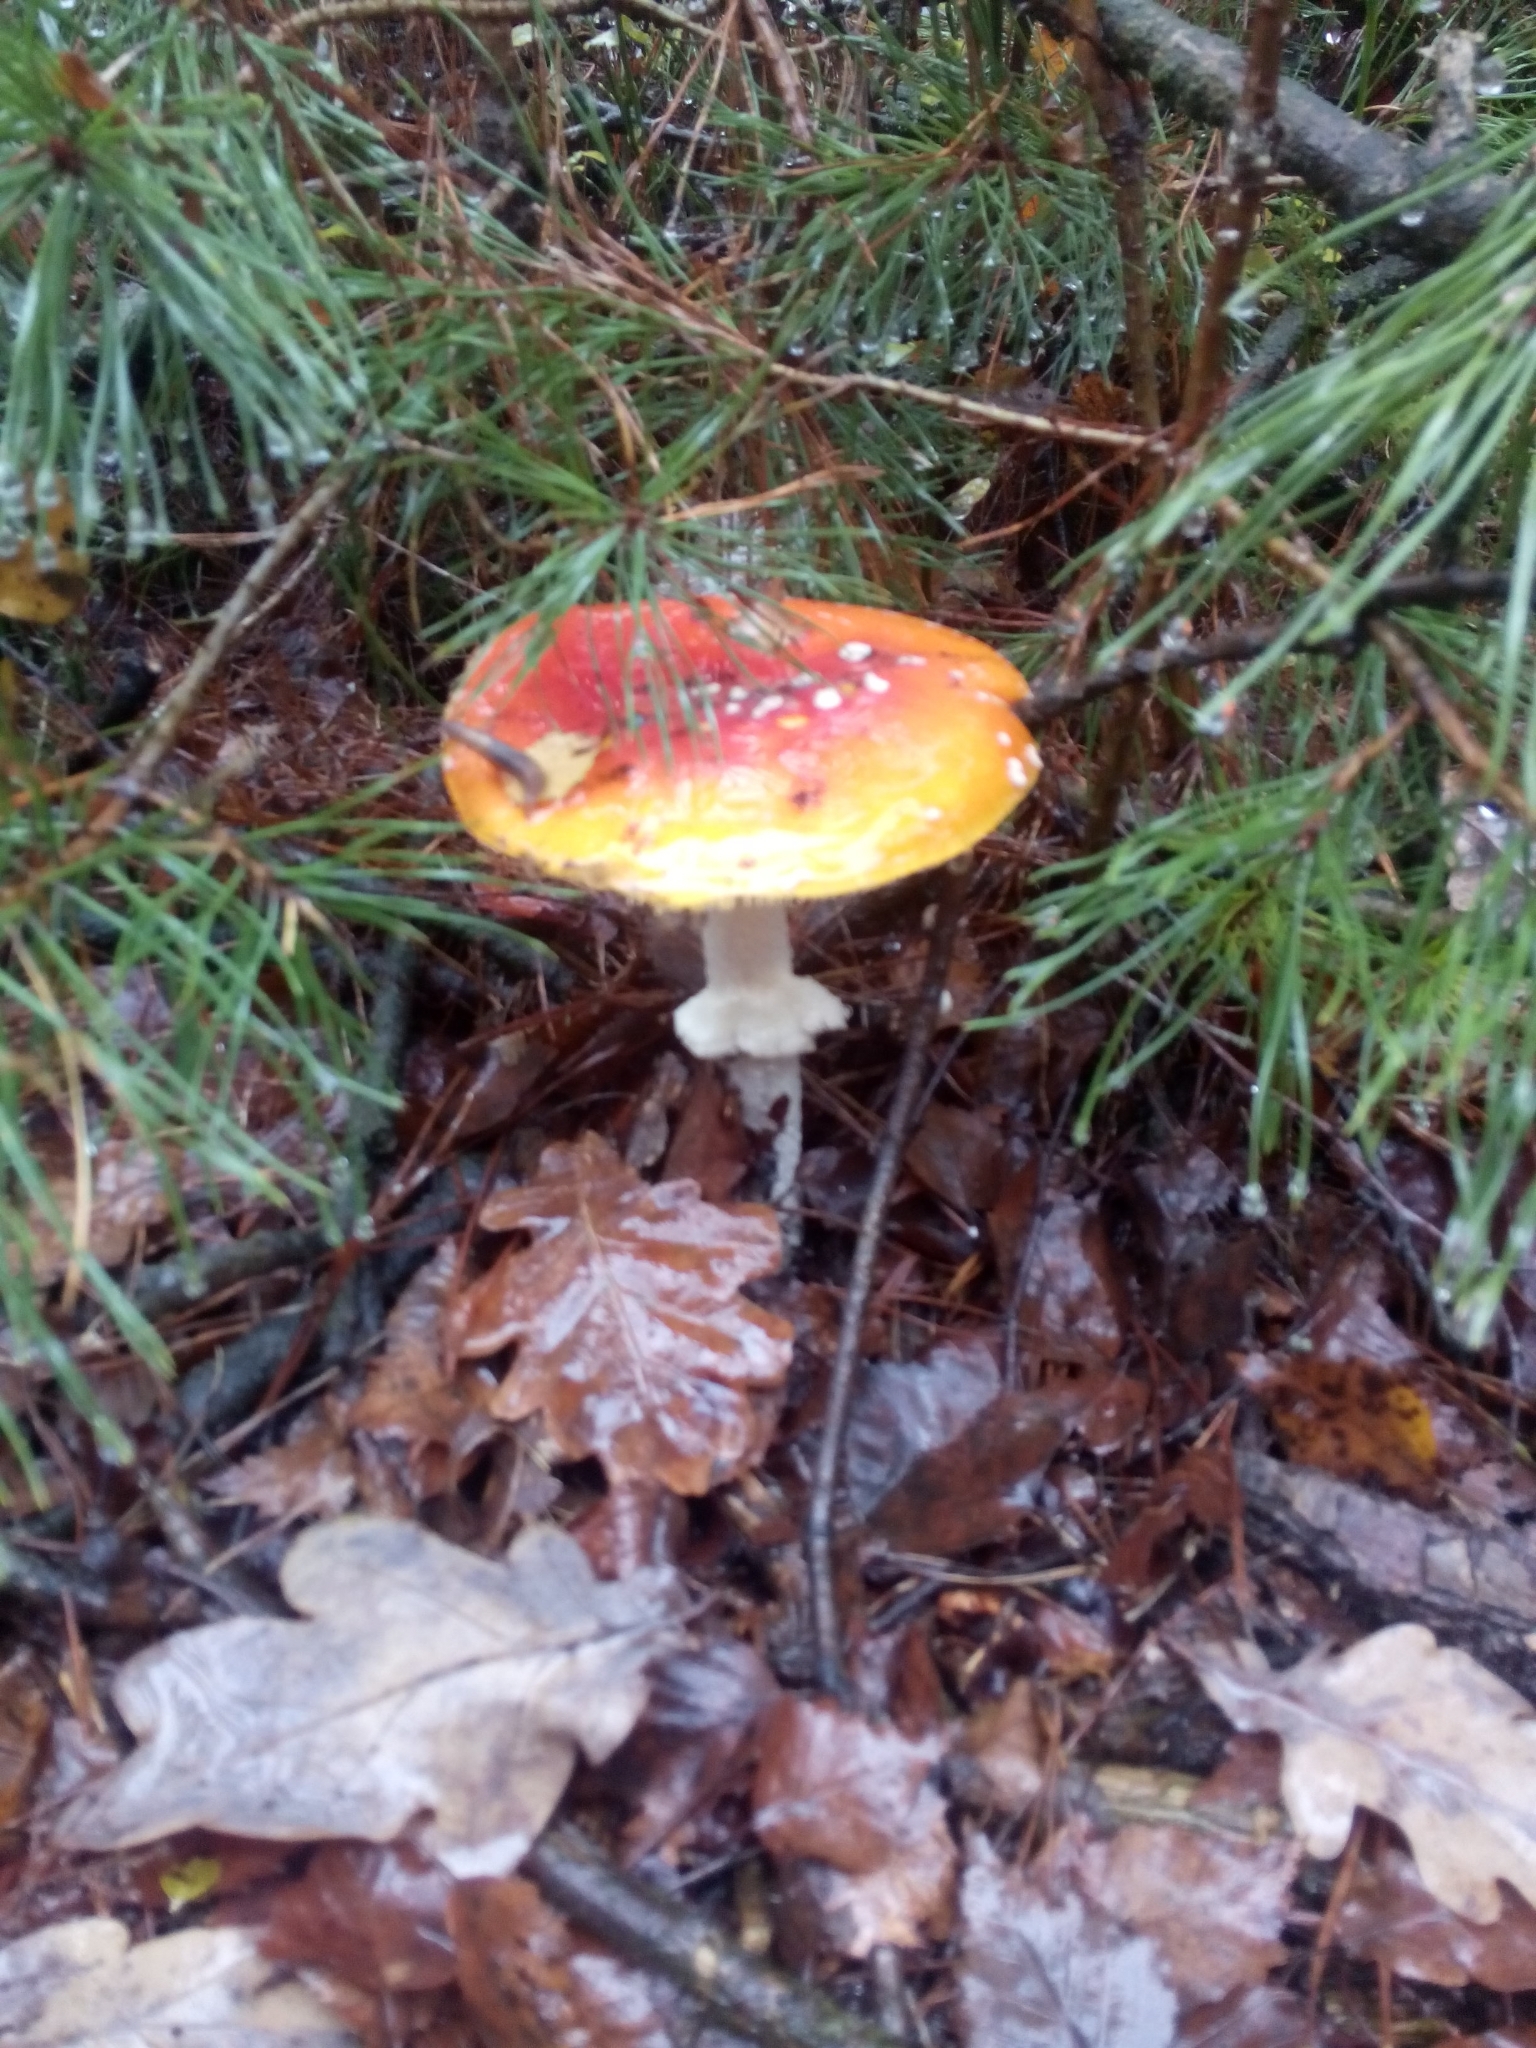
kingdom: Fungi
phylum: Basidiomycota
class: Agaricomycetes
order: Agaricales
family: Amanitaceae
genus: Amanita
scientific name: Amanita muscaria
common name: Fly agaric
